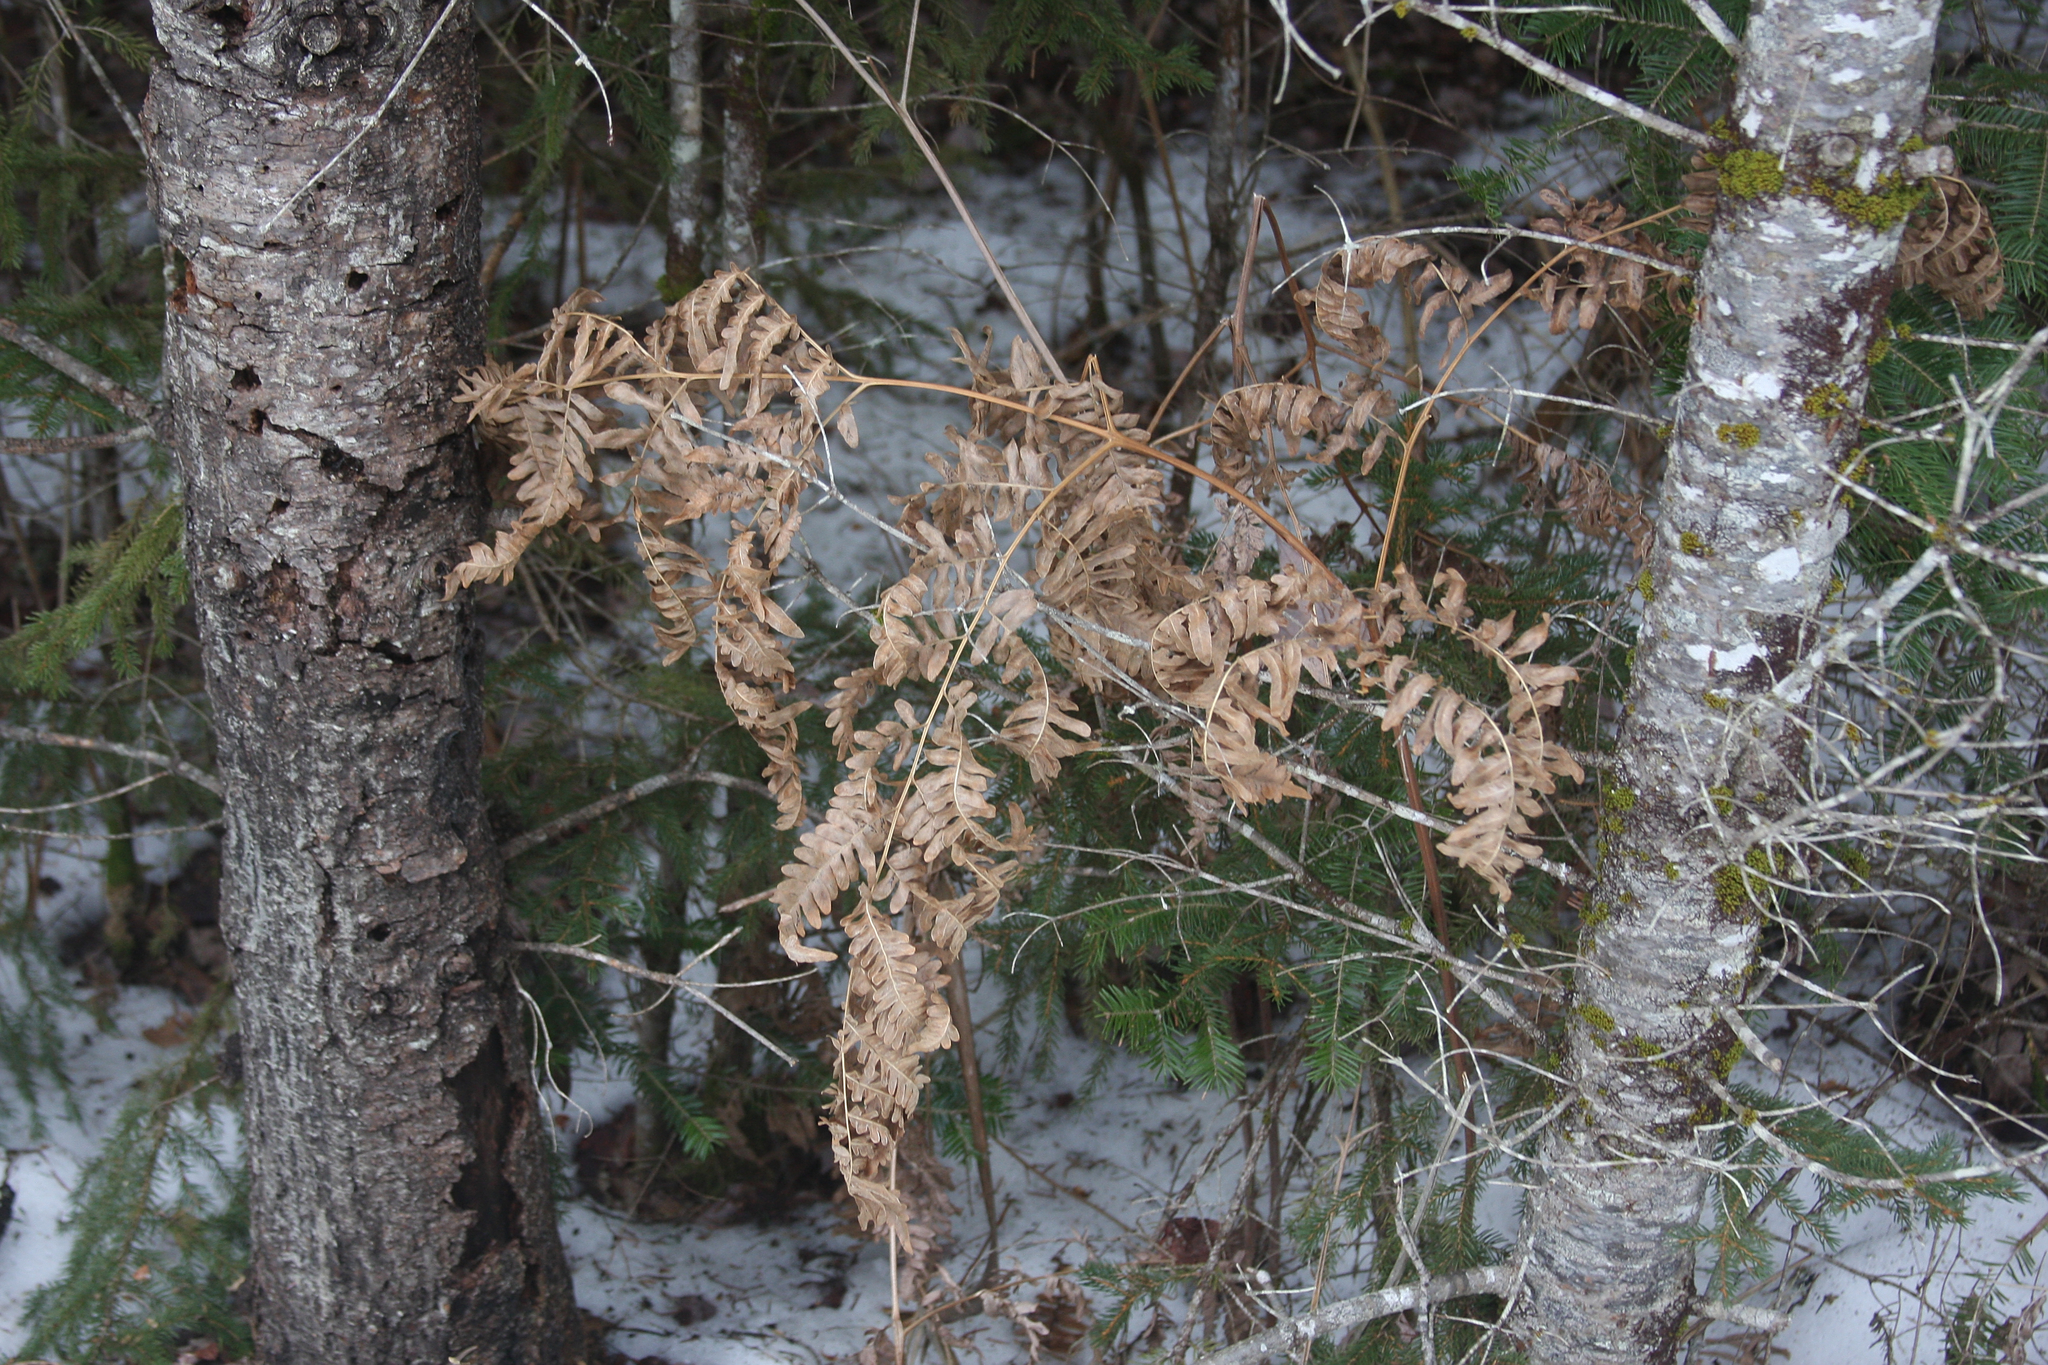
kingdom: Plantae
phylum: Tracheophyta
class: Polypodiopsida
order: Polypodiales
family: Dennstaedtiaceae
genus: Pteridium
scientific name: Pteridium aquilinum
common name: Bracken
